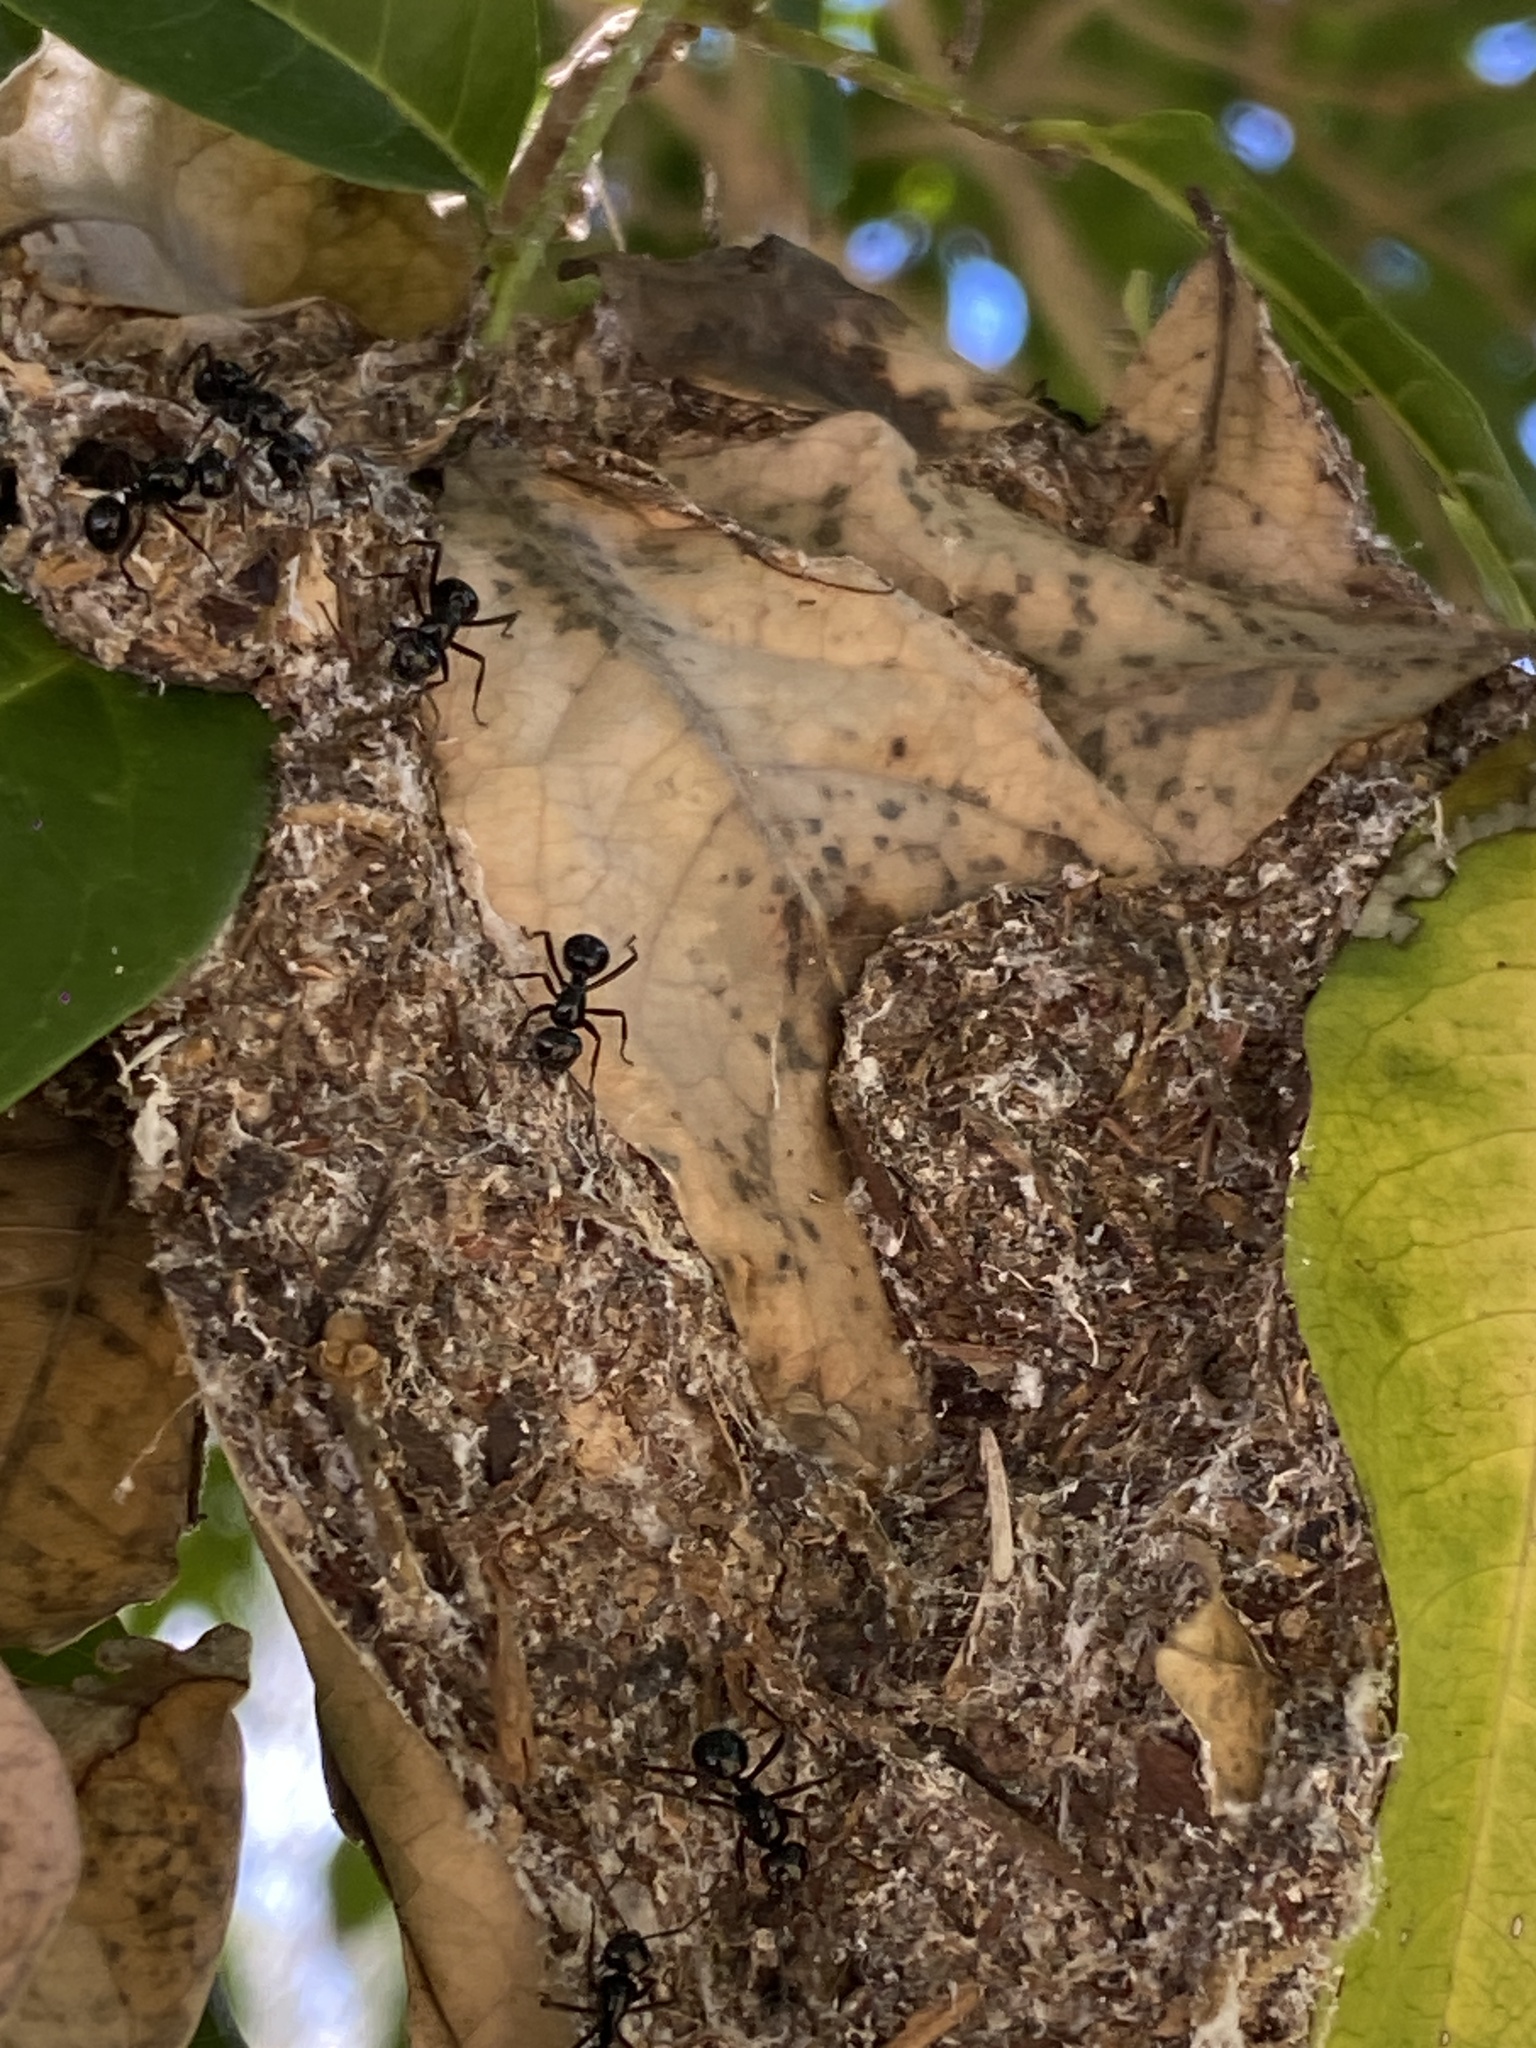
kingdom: Animalia
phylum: Arthropoda
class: Insecta
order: Hymenoptera
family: Formicidae
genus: Polyrhachis
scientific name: Polyrhachis australis
